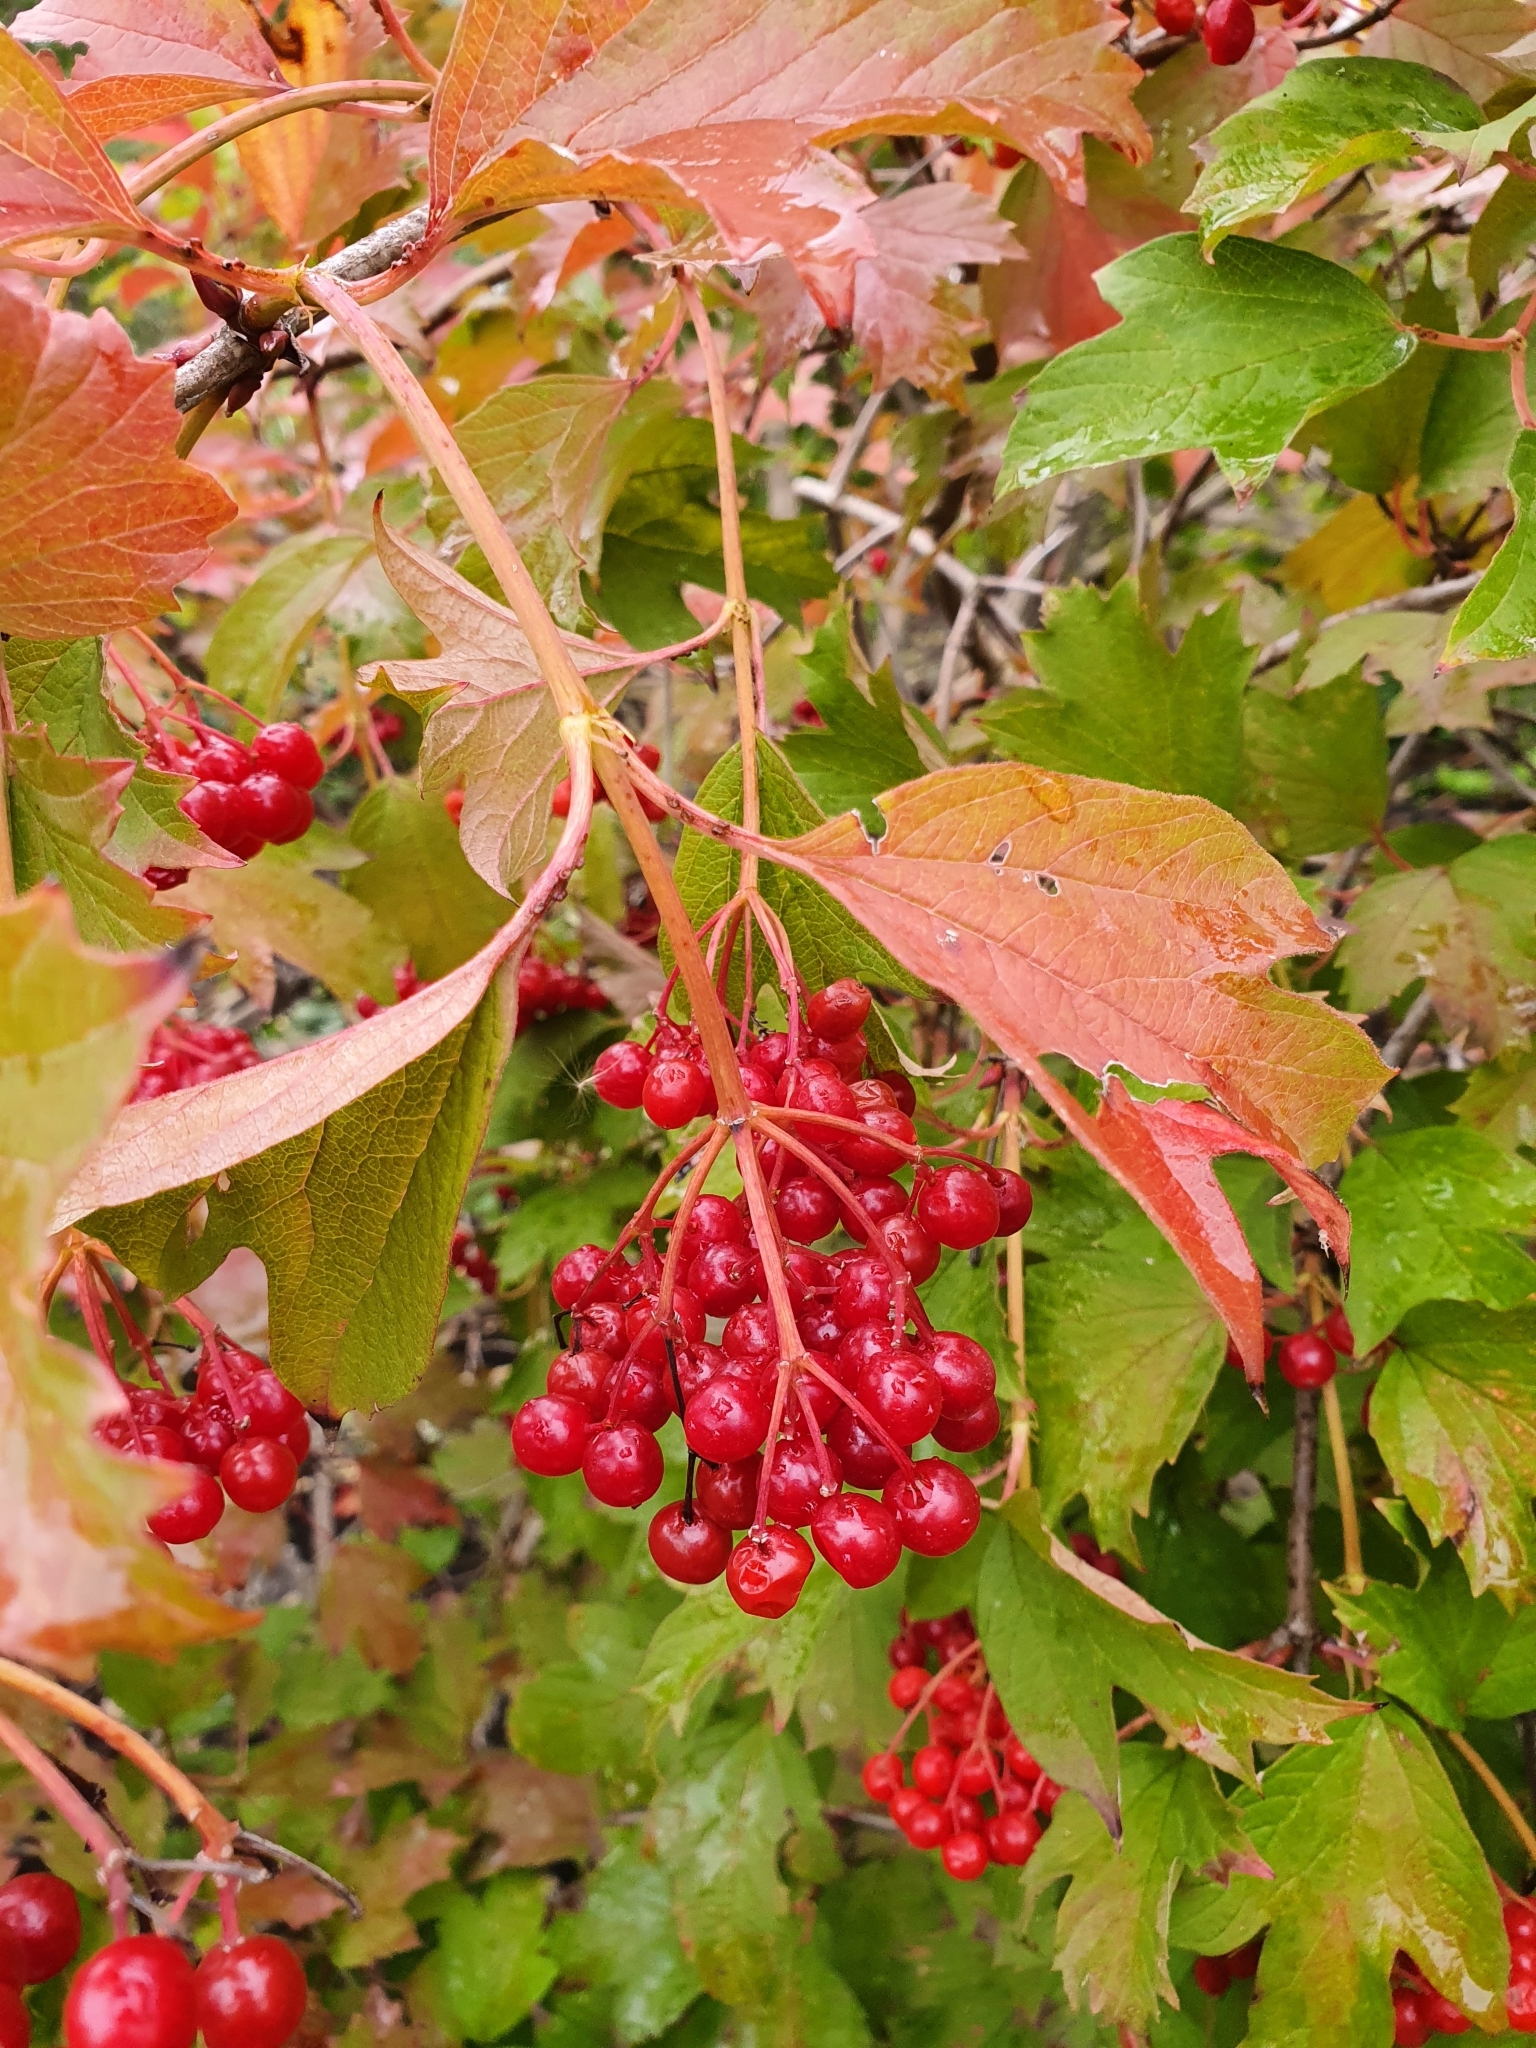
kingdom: Plantae
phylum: Tracheophyta
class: Magnoliopsida
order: Dipsacales
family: Viburnaceae
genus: Viburnum
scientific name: Viburnum opulus
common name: Guelder-rose
